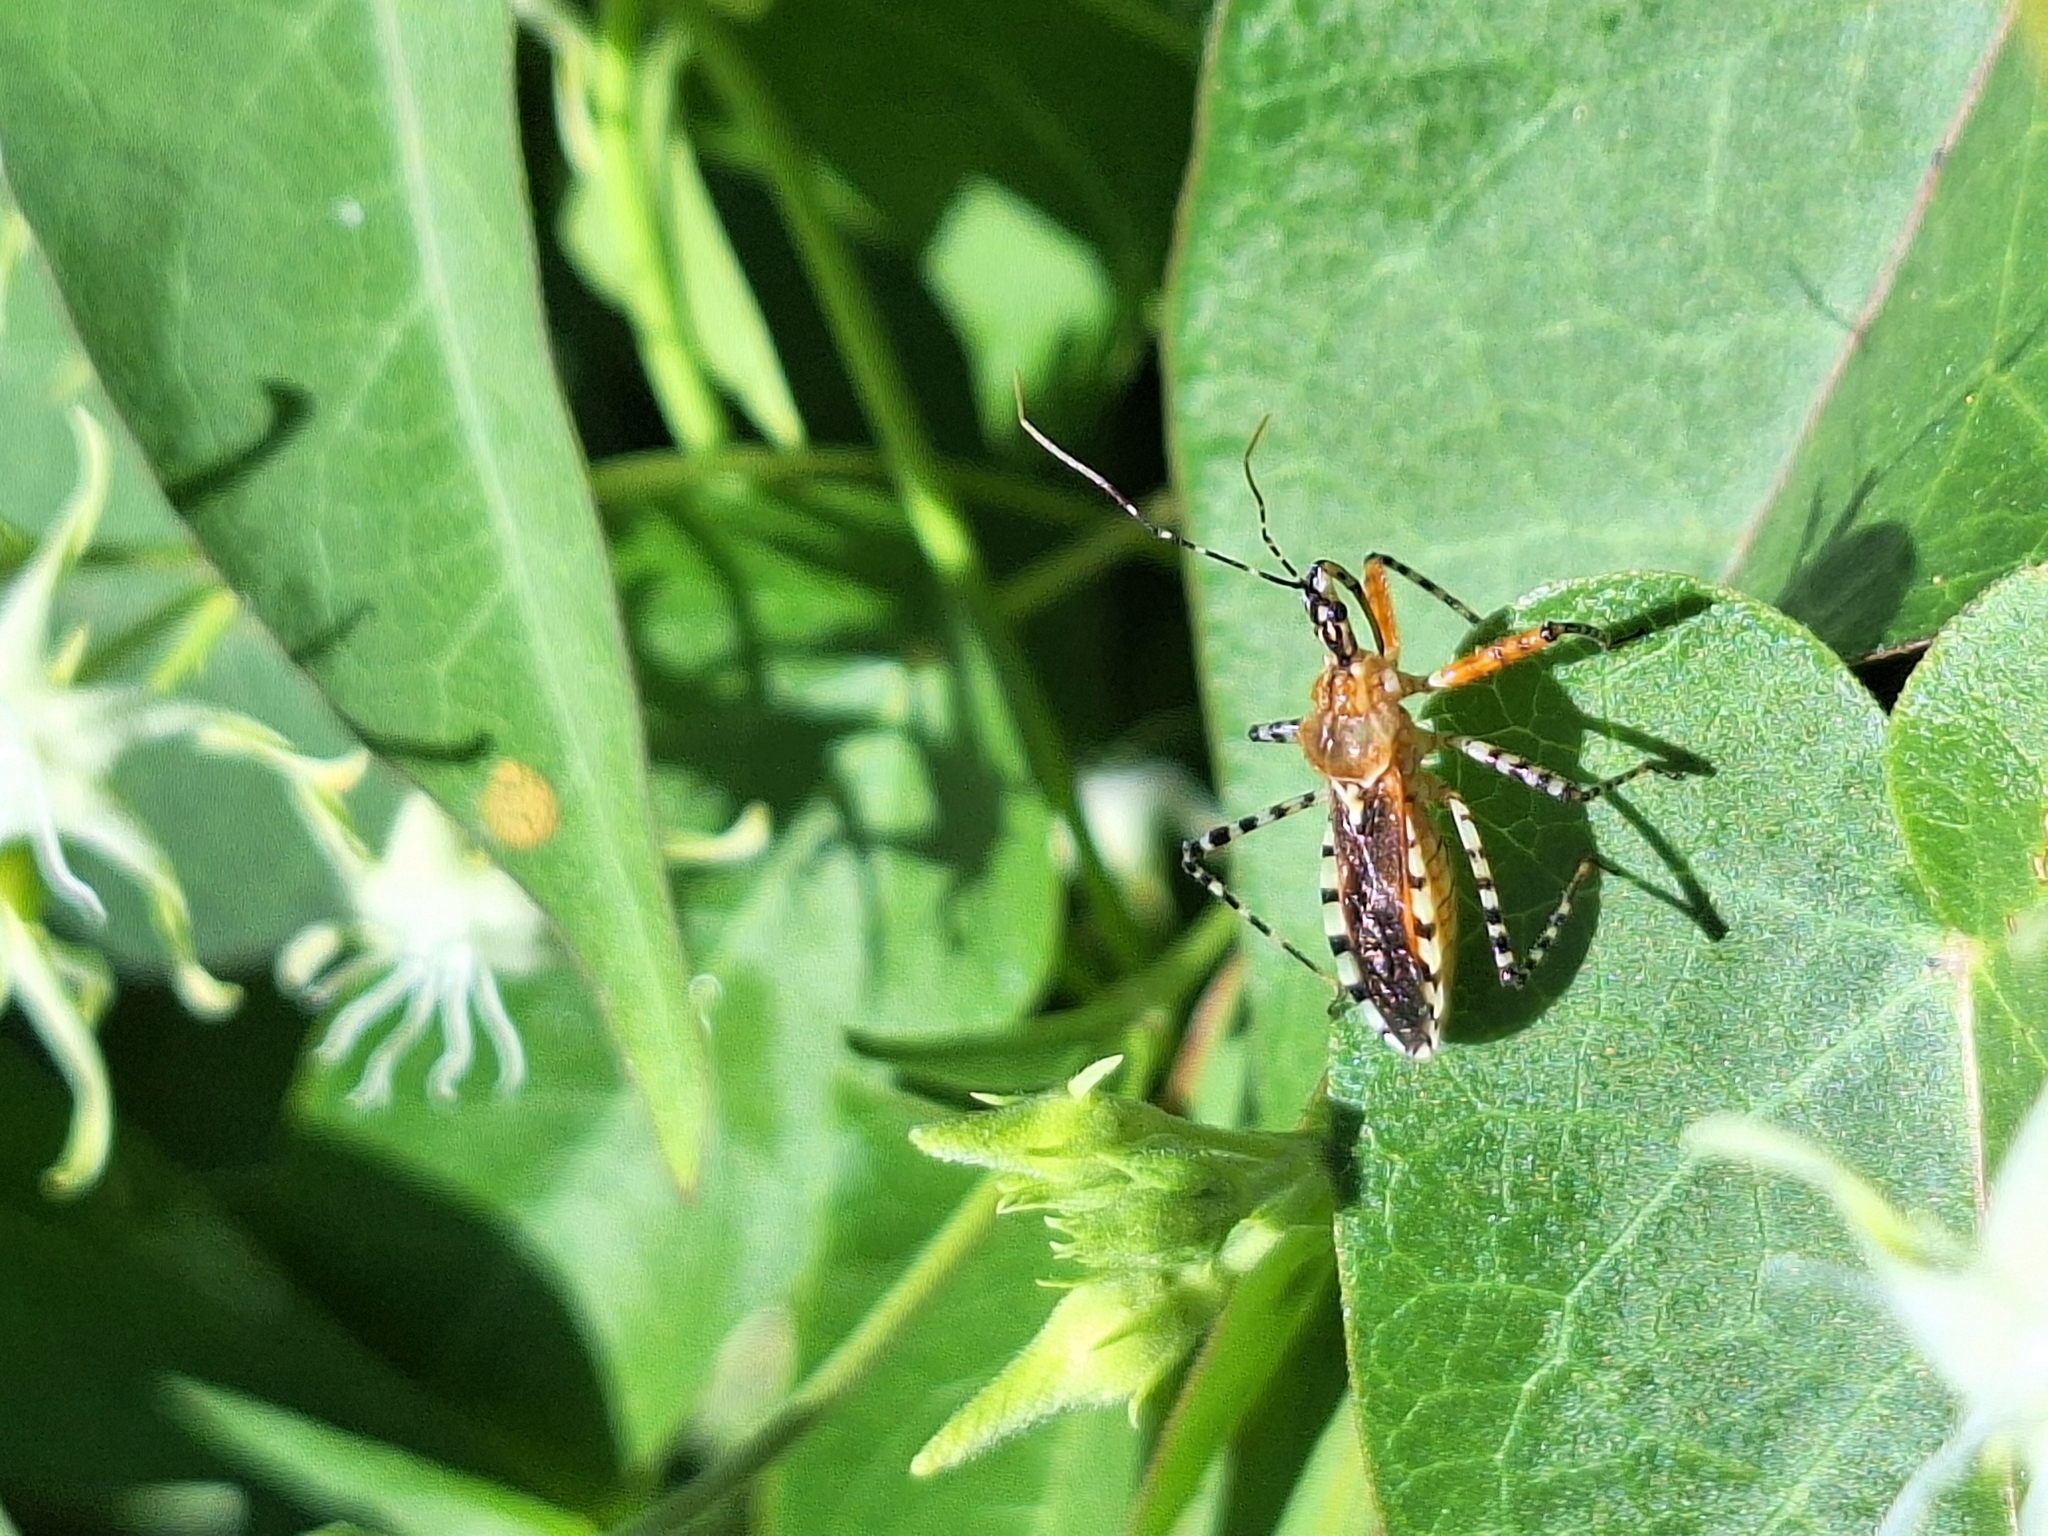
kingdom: Animalia
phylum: Arthropoda
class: Insecta
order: Hemiptera
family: Reduviidae
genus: Cosmoclopius
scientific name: Cosmoclopius nigroannulatus
